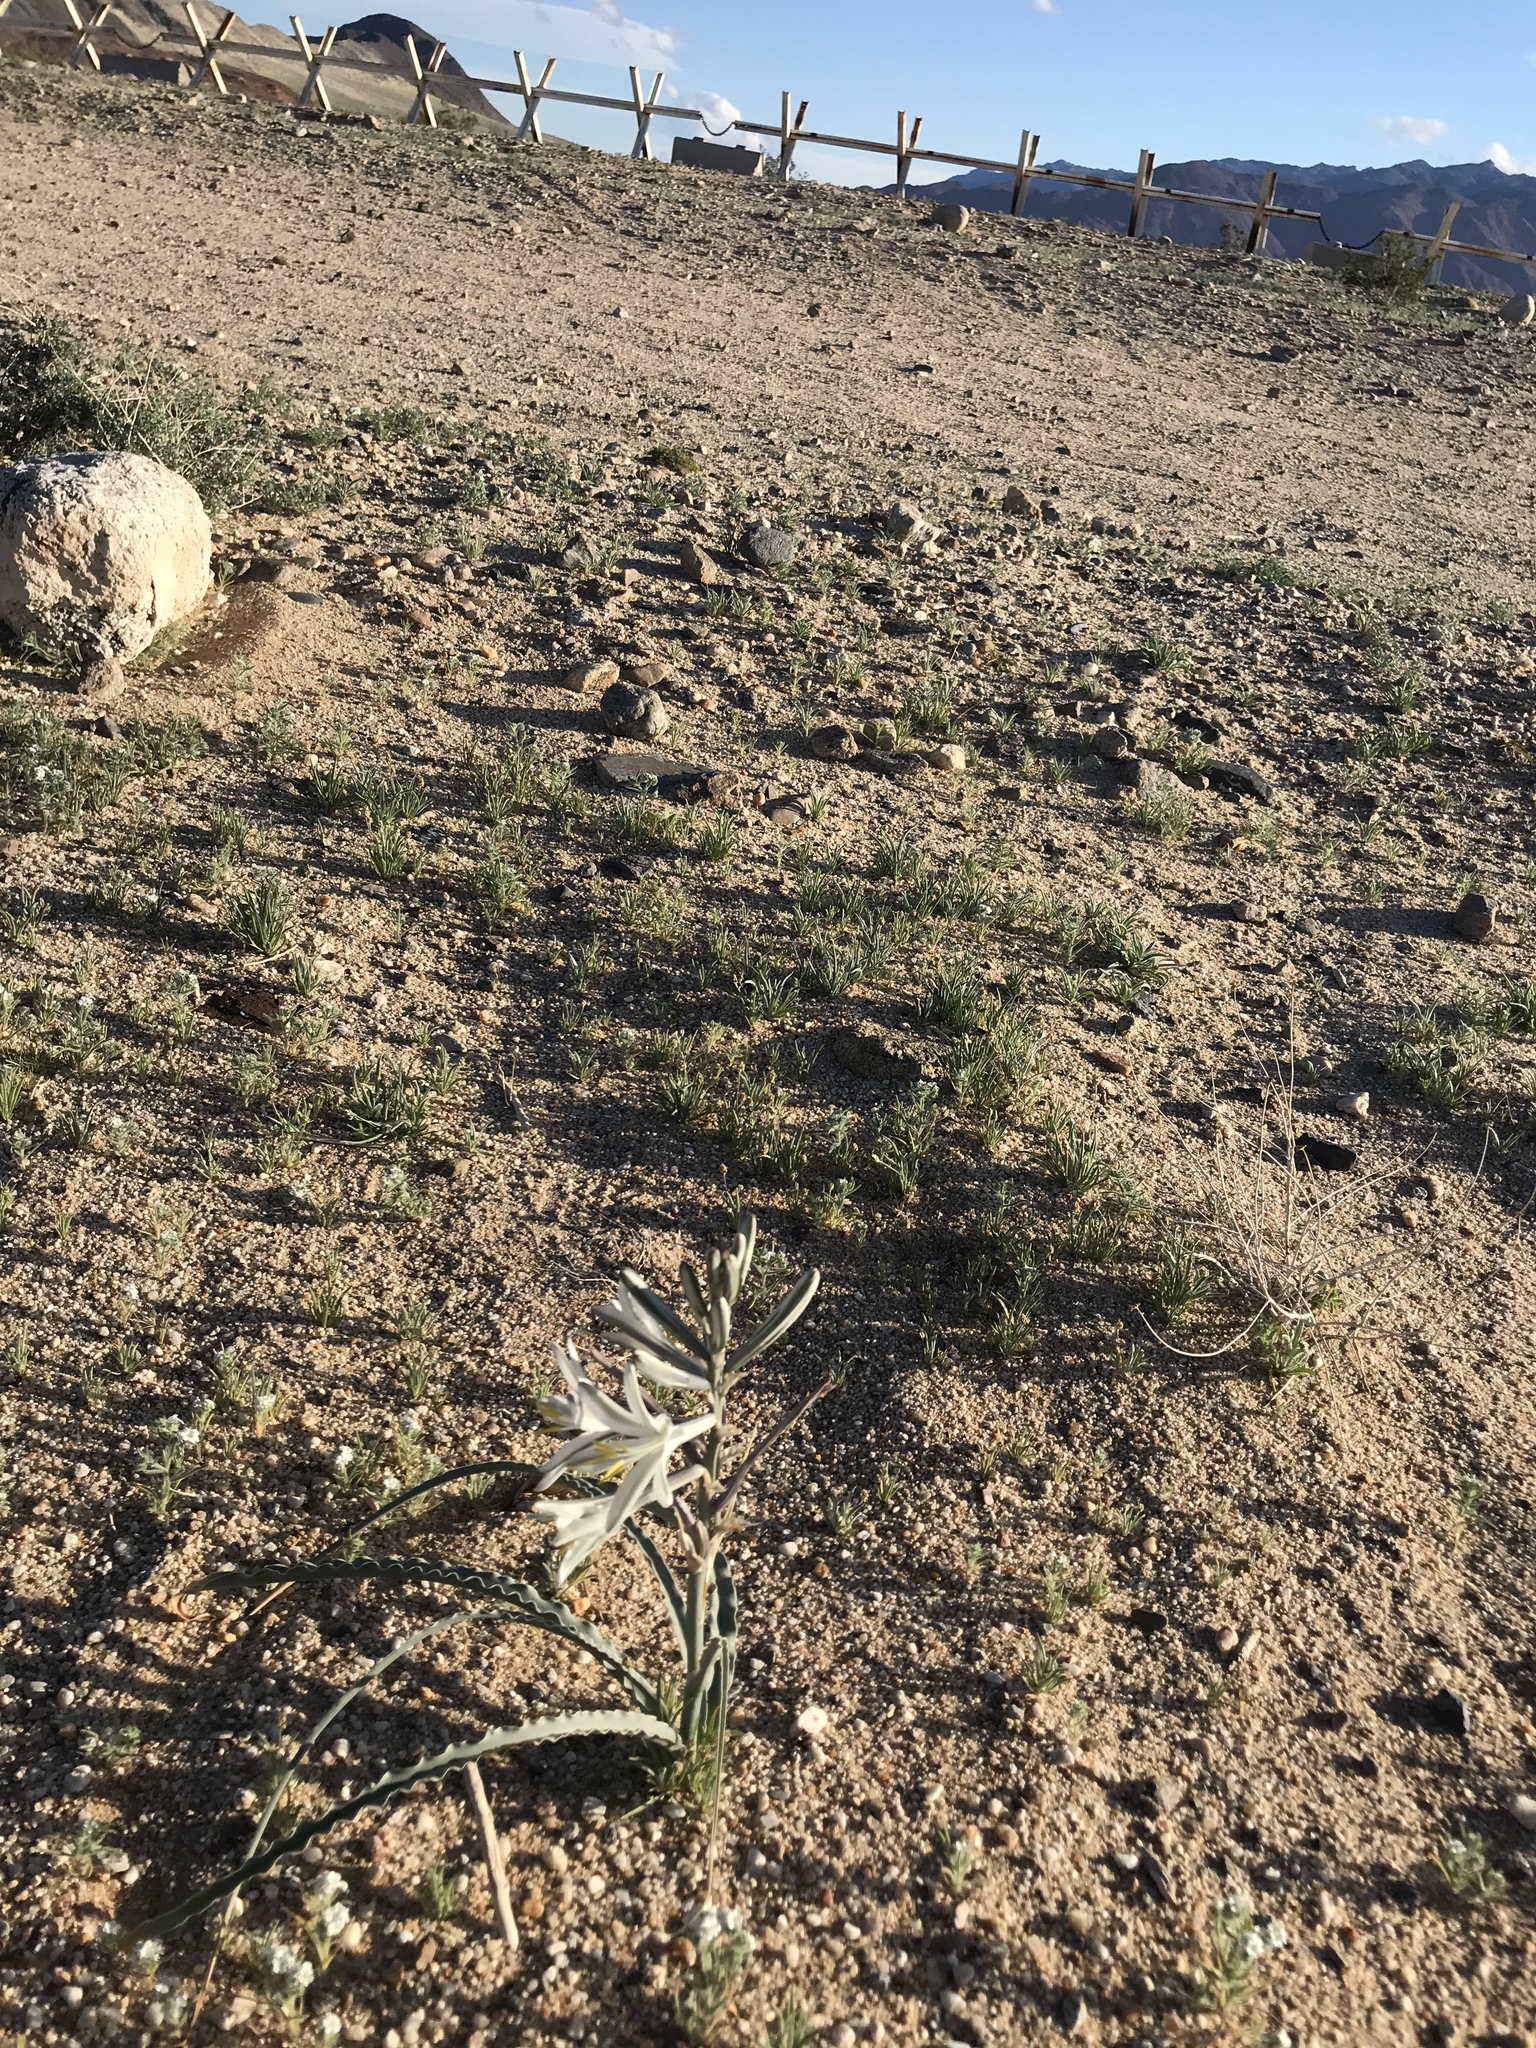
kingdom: Plantae
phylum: Tracheophyta
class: Liliopsida
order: Asparagales
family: Asparagaceae
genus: Hesperocallis
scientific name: Hesperocallis undulata
